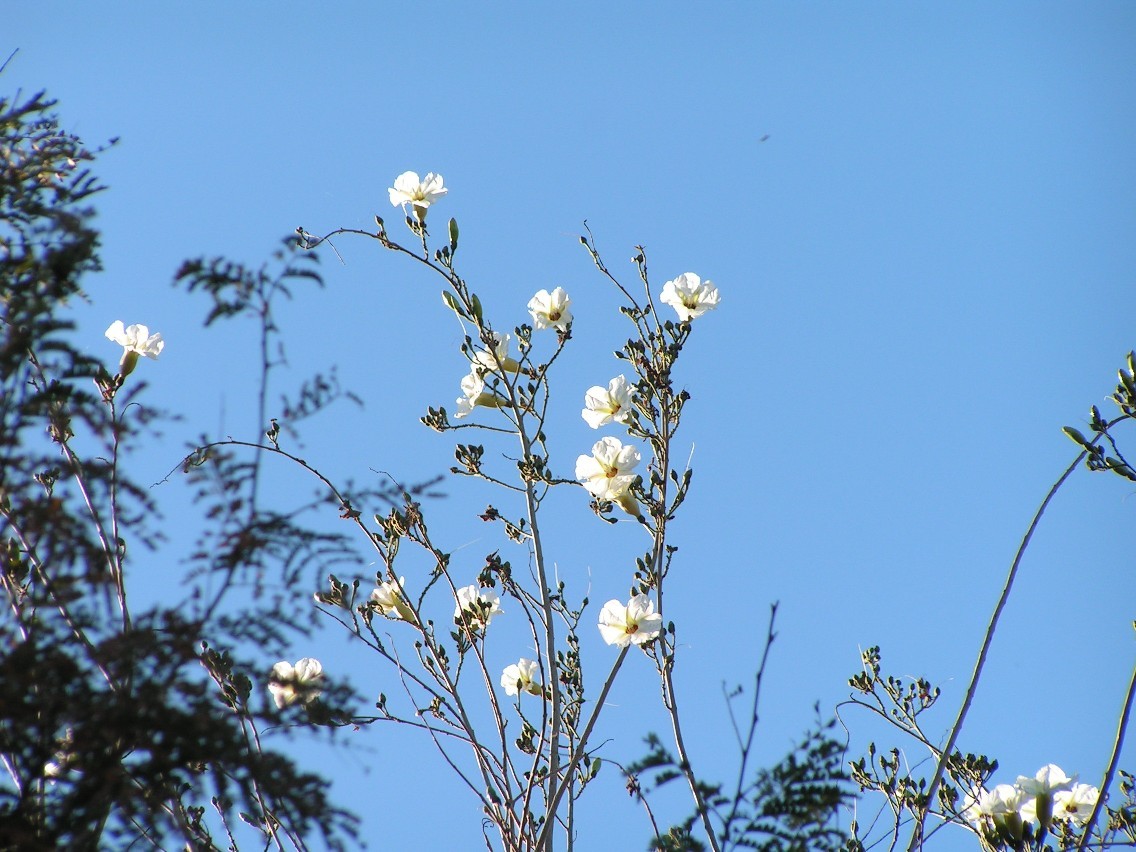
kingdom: Plantae
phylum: Tracheophyta
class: Magnoliopsida
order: Solanales
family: Convolvulaceae
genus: Ipomoea
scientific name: Ipomoea arborescens
